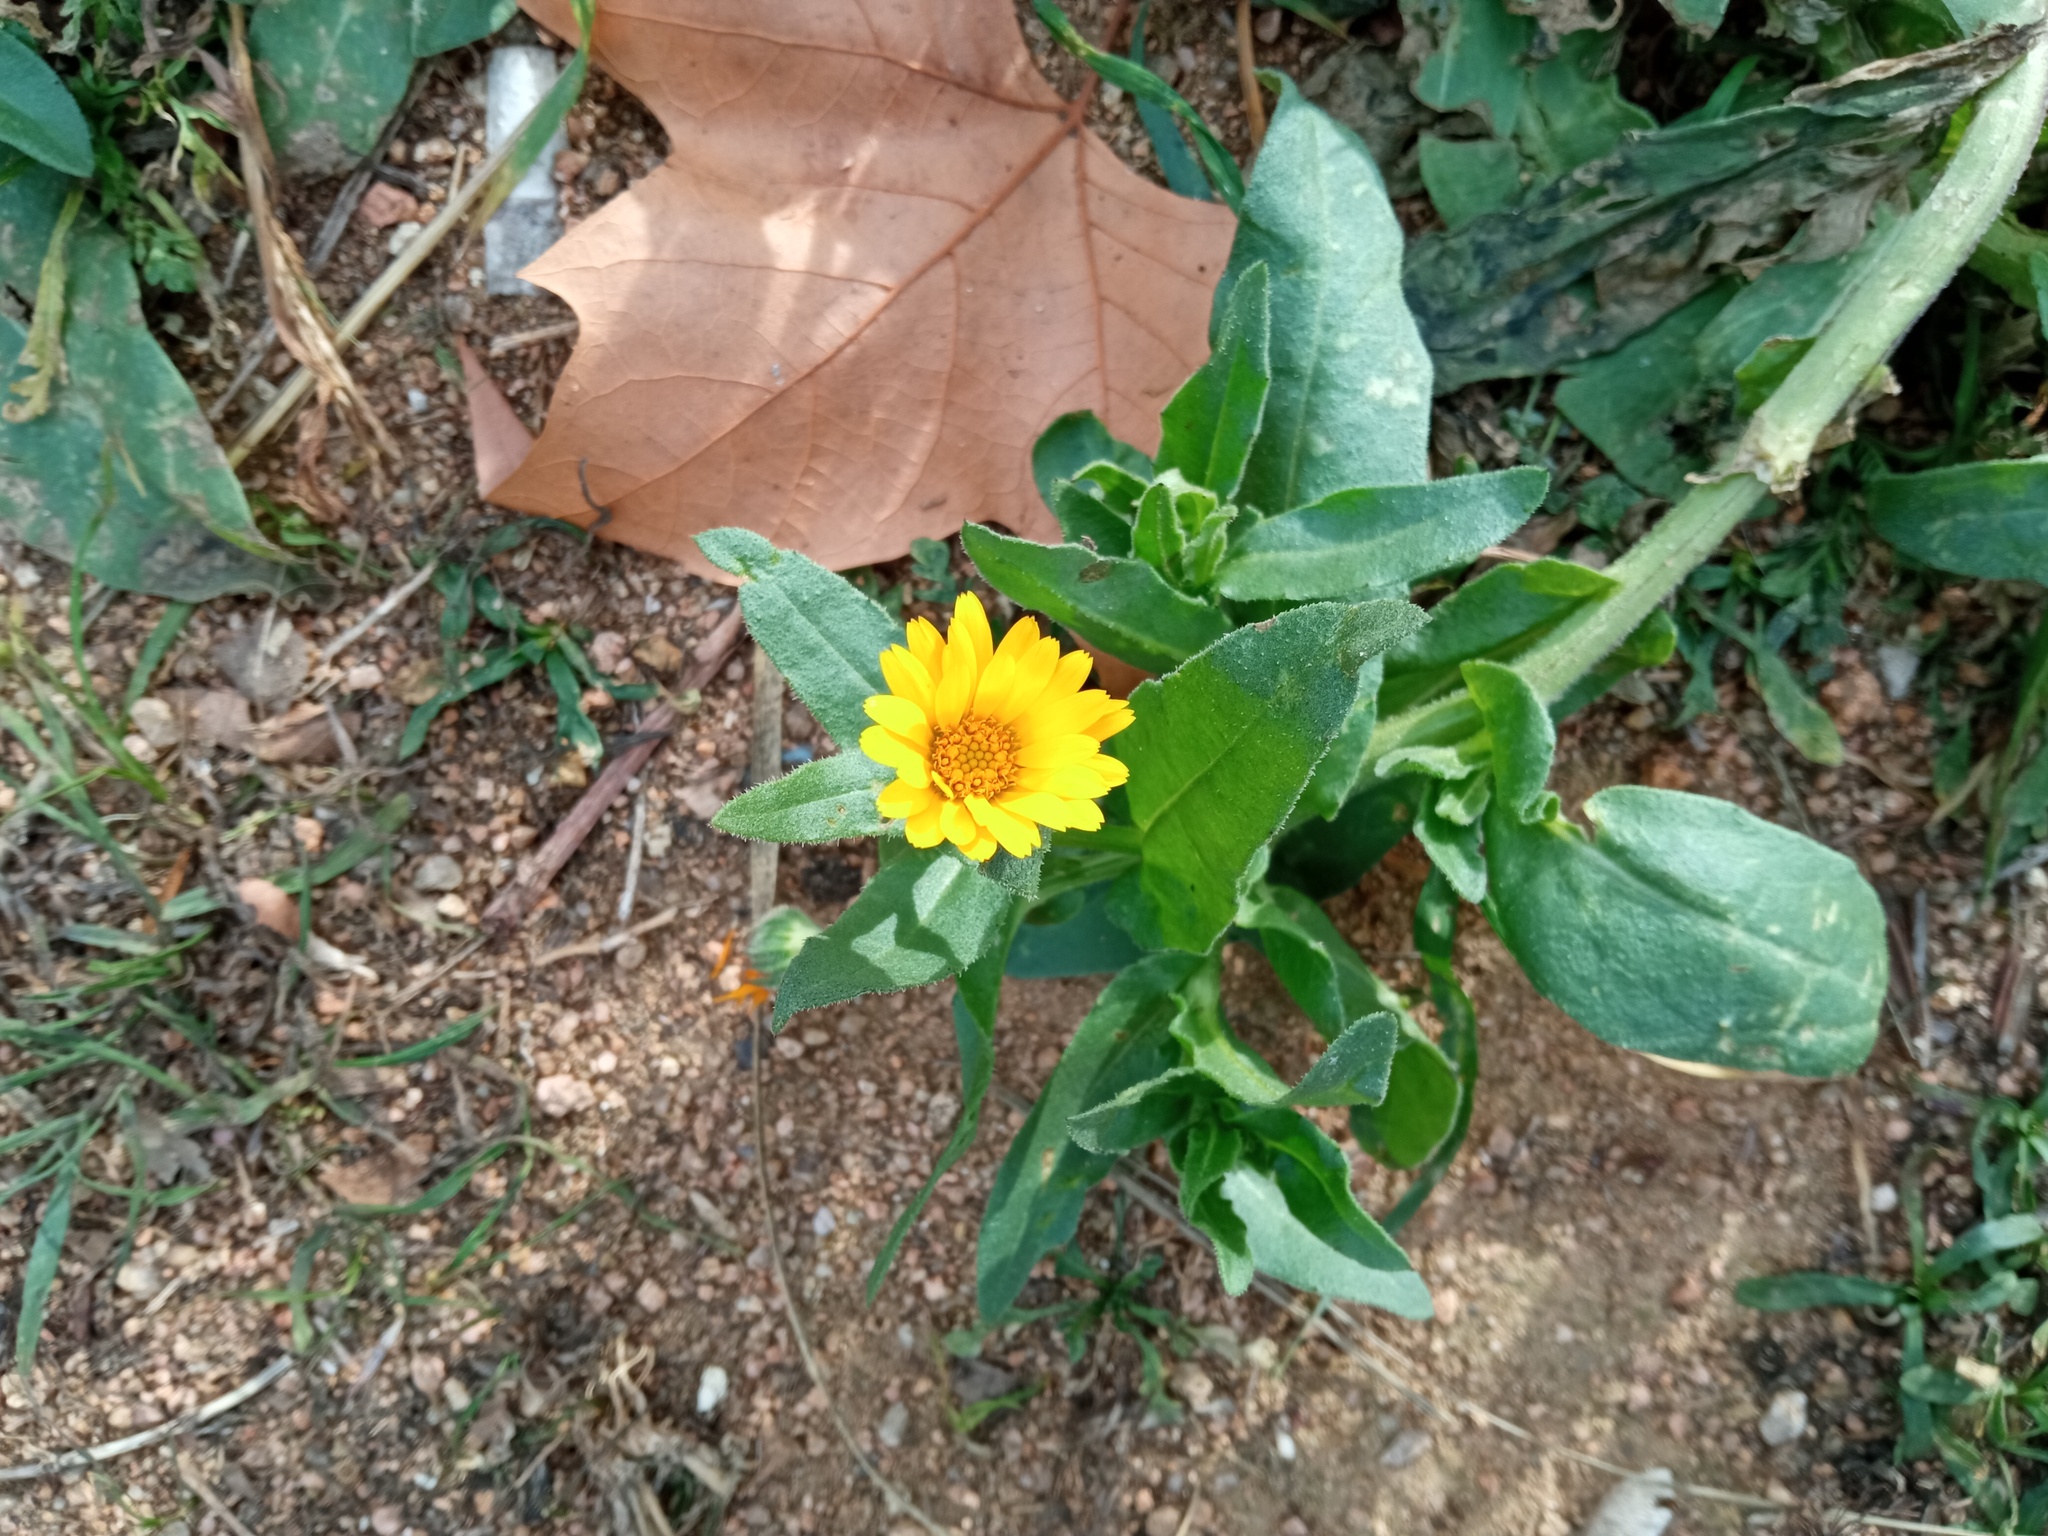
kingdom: Plantae
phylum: Tracheophyta
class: Magnoliopsida
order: Asterales
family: Asteraceae
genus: Calendula
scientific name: Calendula arvensis
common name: Field marigold
